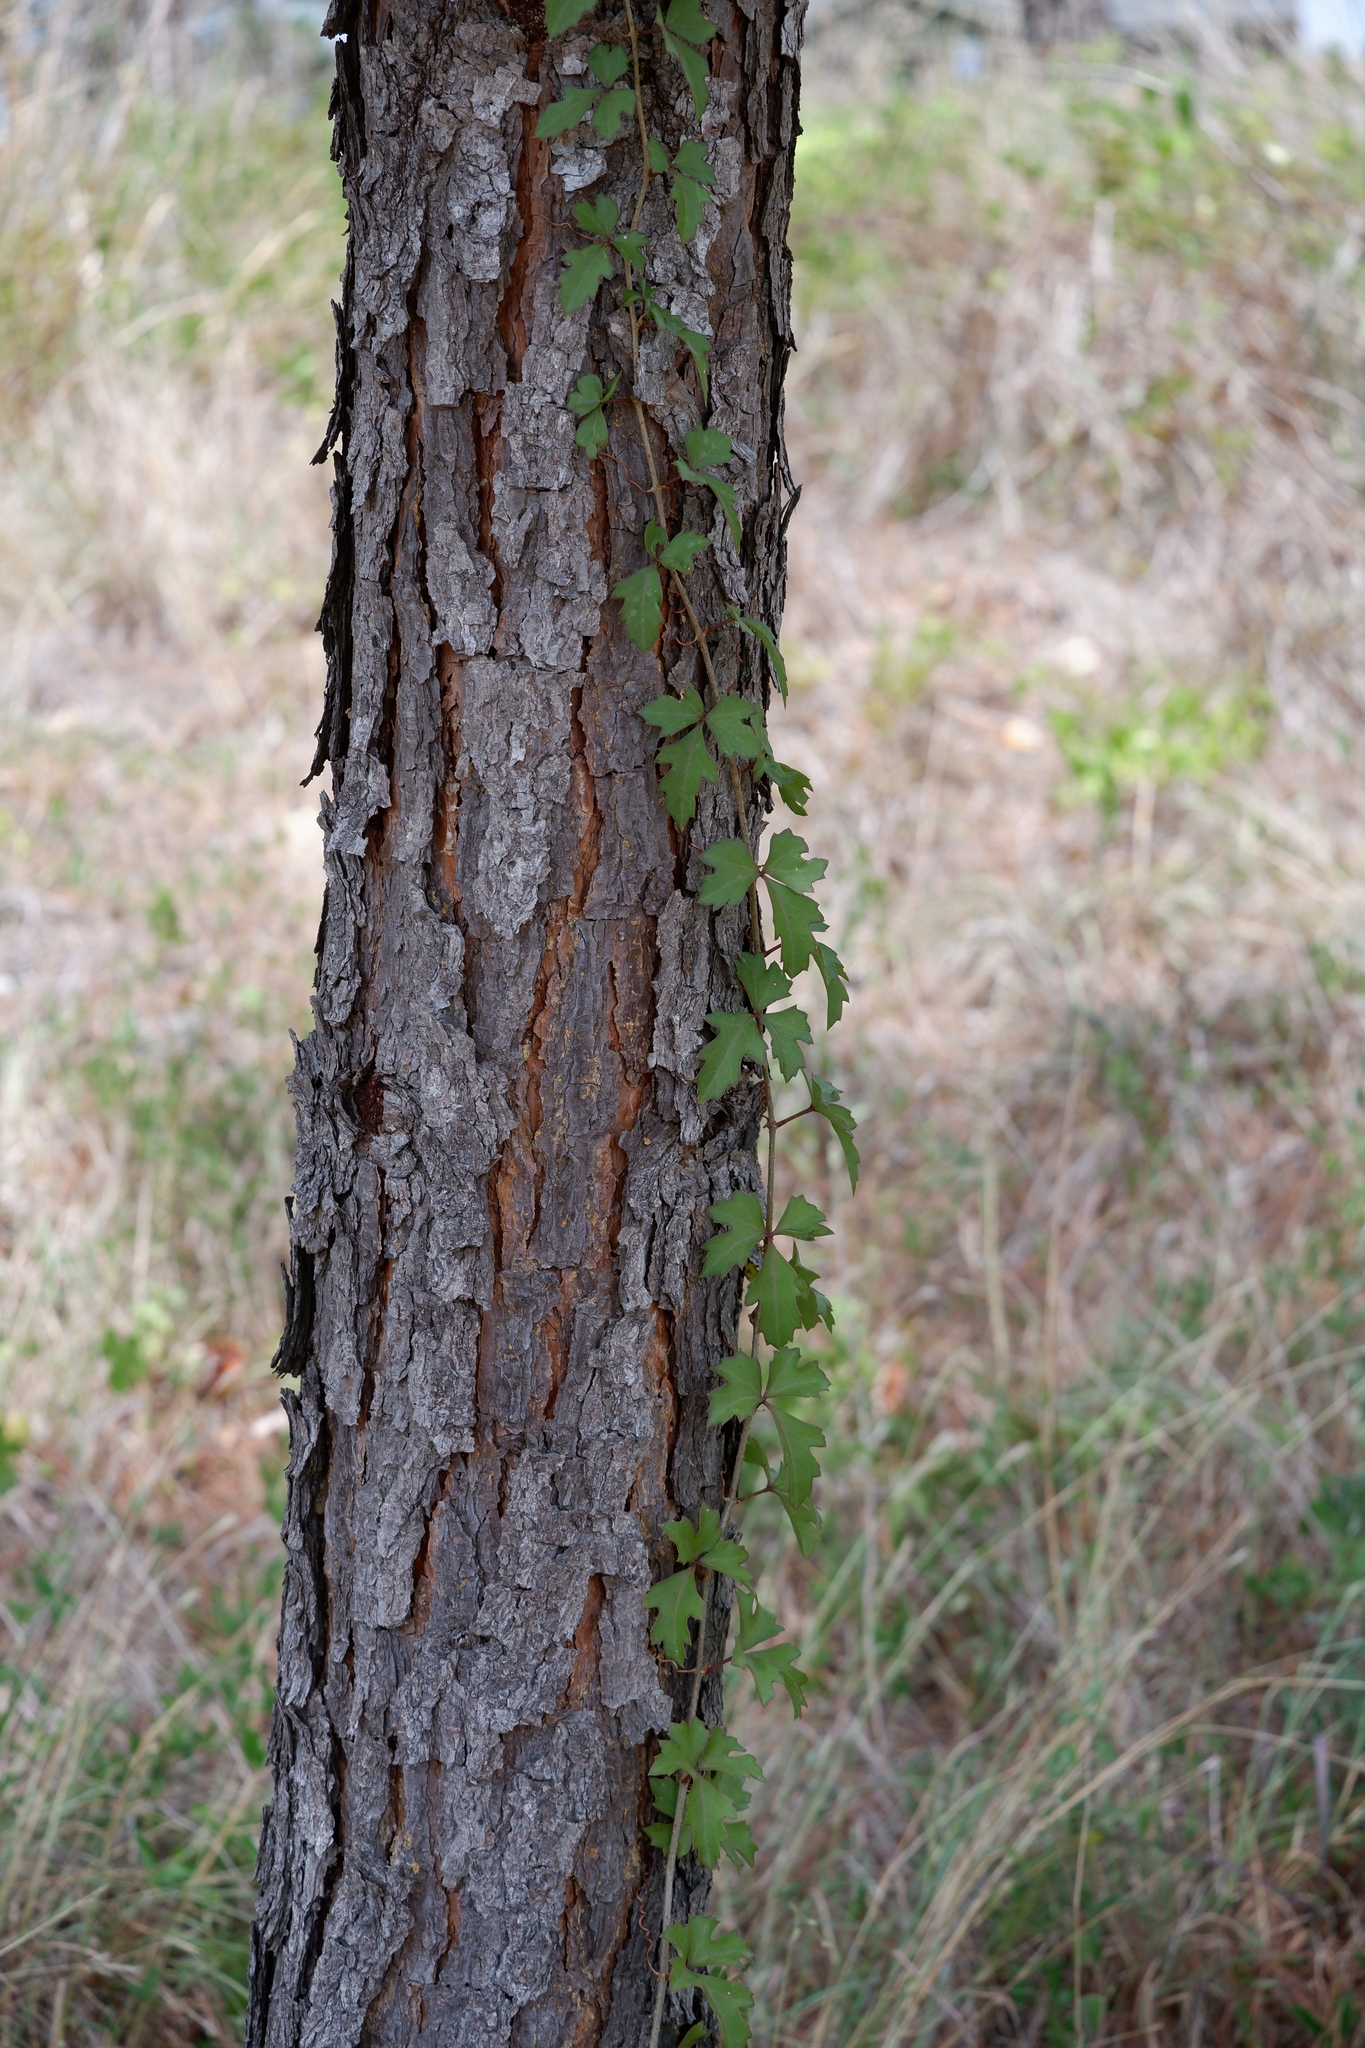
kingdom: Plantae
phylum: Tracheophyta
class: Magnoliopsida
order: Vitales
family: Vitaceae
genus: Cissus
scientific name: Cissus trifoliata
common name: Vine-sorrel
